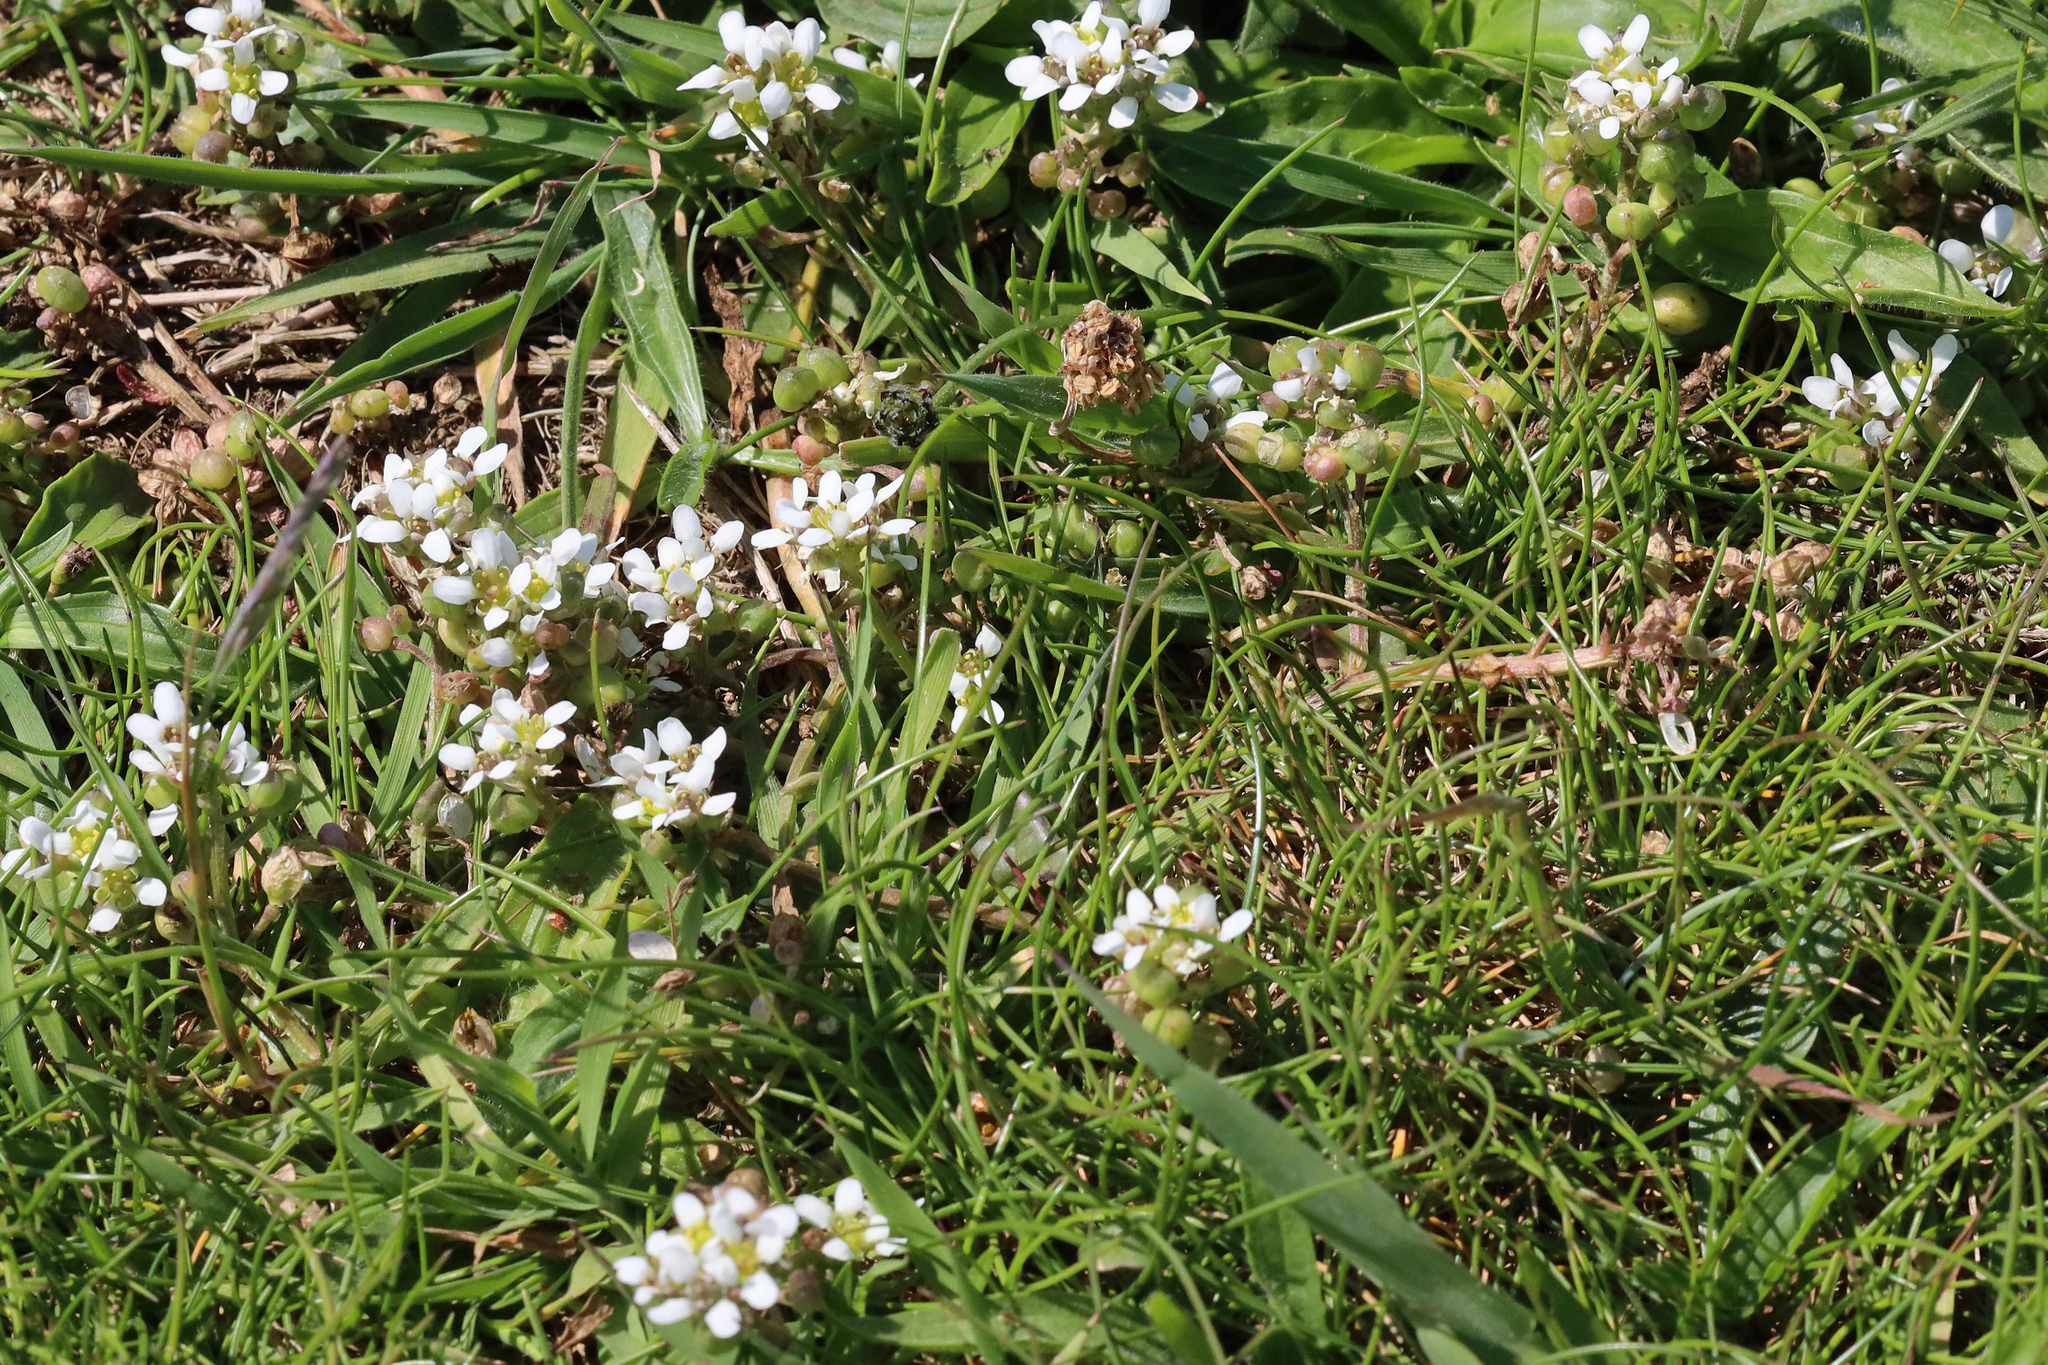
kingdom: Plantae
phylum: Tracheophyta
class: Magnoliopsida
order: Brassicales
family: Brassicaceae
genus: Cochlearia
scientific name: Cochlearia officinalis
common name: Scurvy-grass
